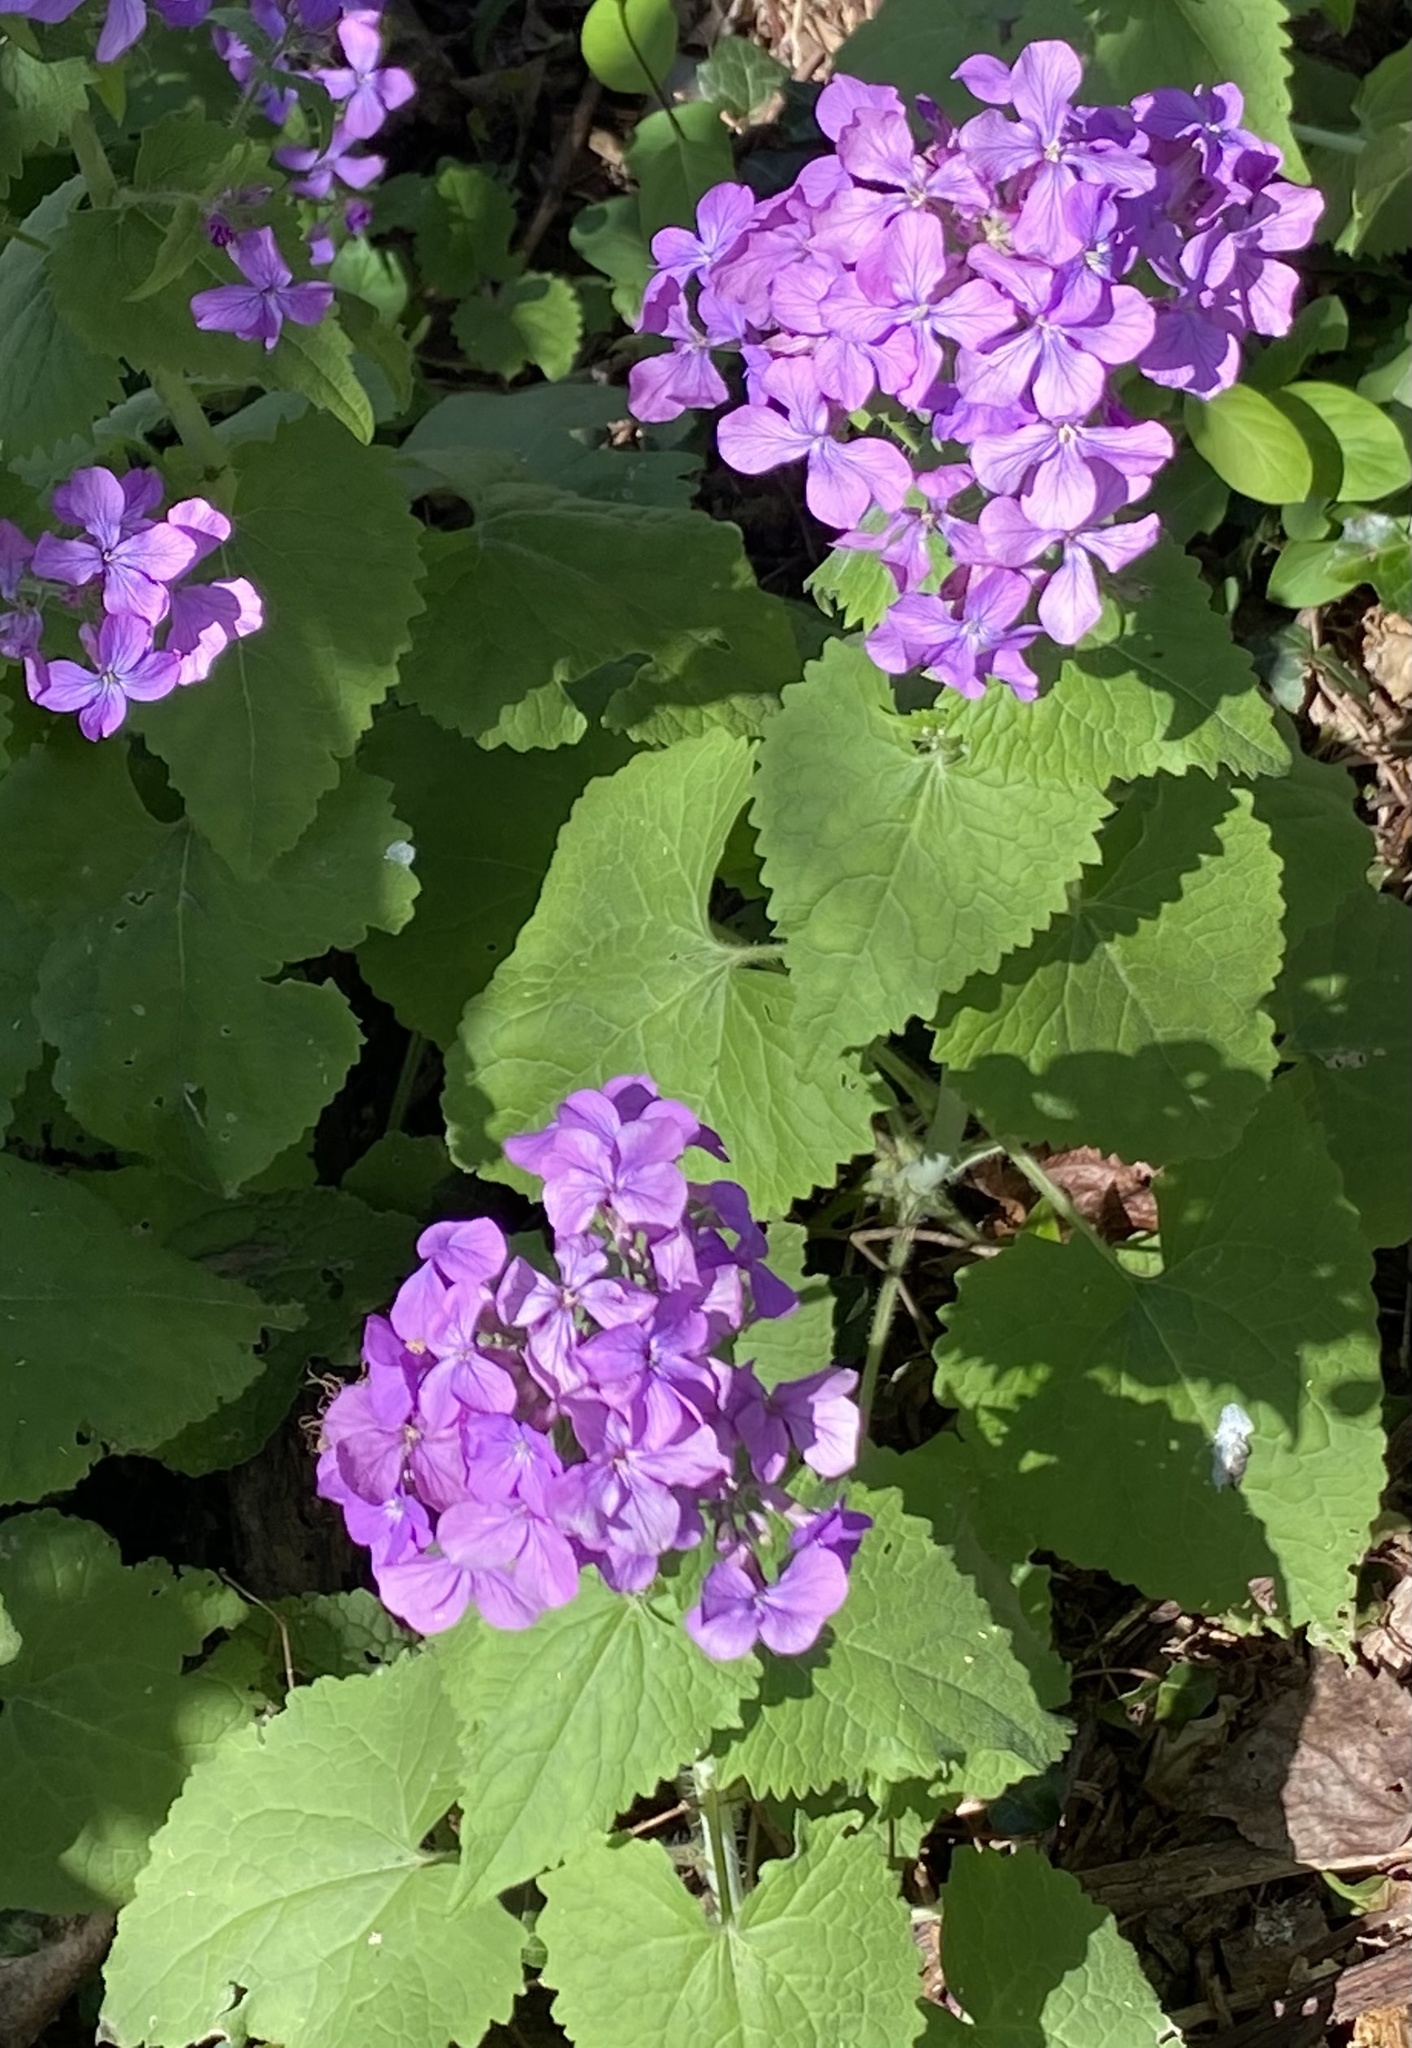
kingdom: Plantae
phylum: Tracheophyta
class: Magnoliopsida
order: Brassicales
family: Brassicaceae
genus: Lunaria
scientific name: Lunaria annua
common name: Honesty
